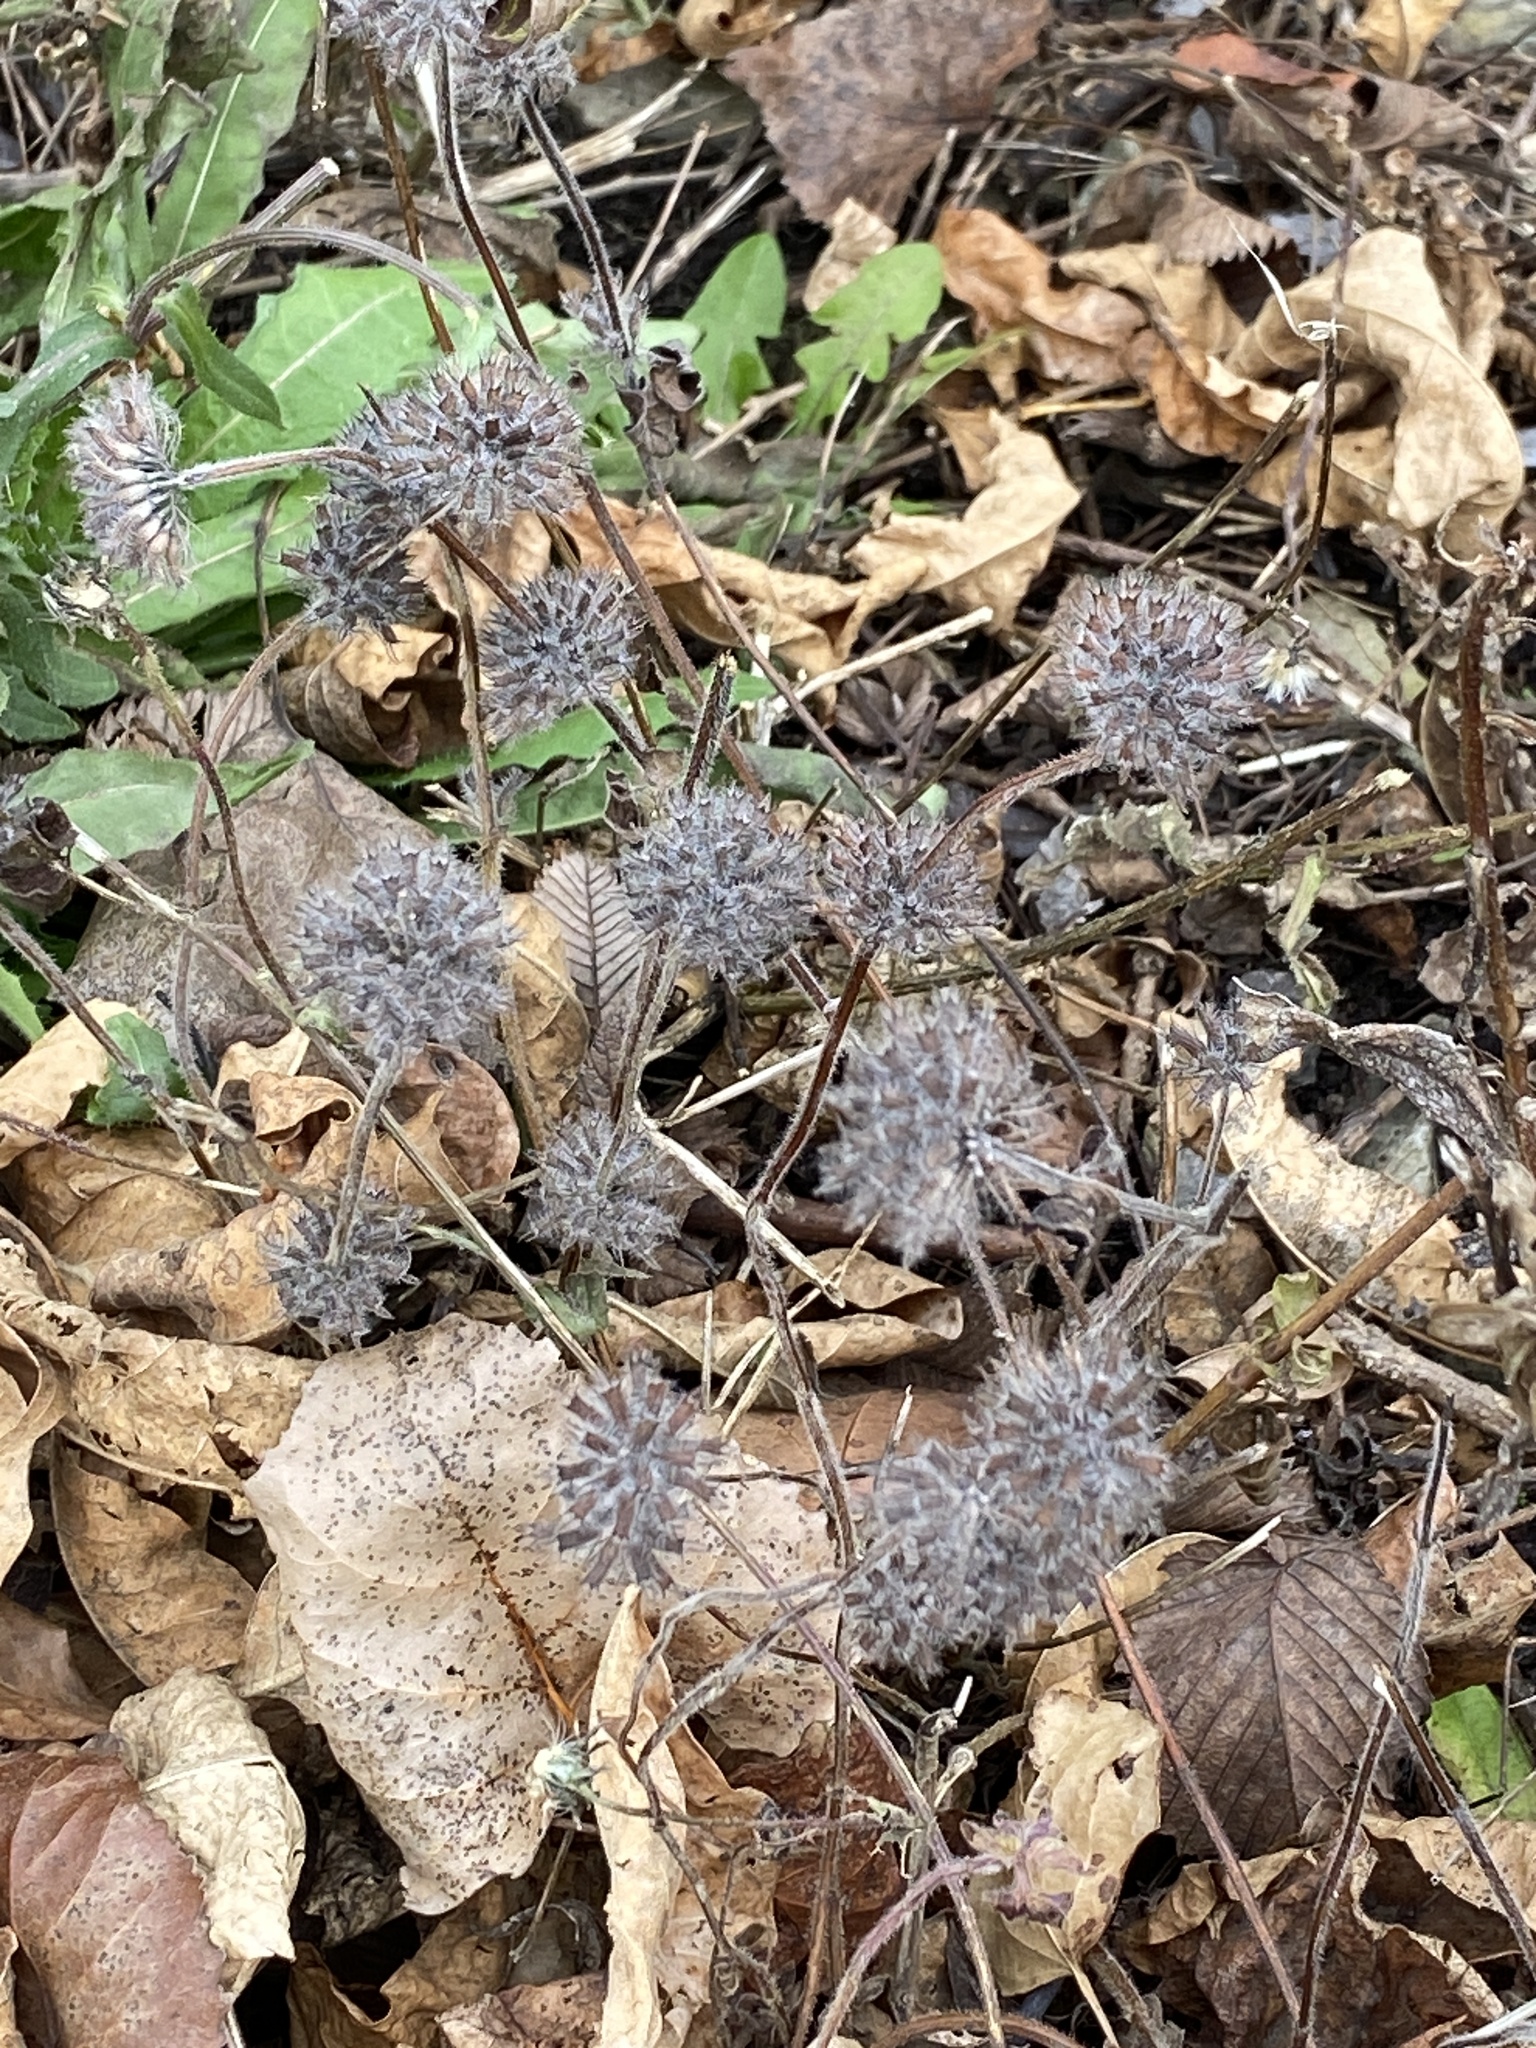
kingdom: Plantae
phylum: Tracheophyta
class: Magnoliopsida
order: Lamiales
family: Lamiaceae
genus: Clinopodium
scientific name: Clinopodium vulgare
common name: Wild basil
